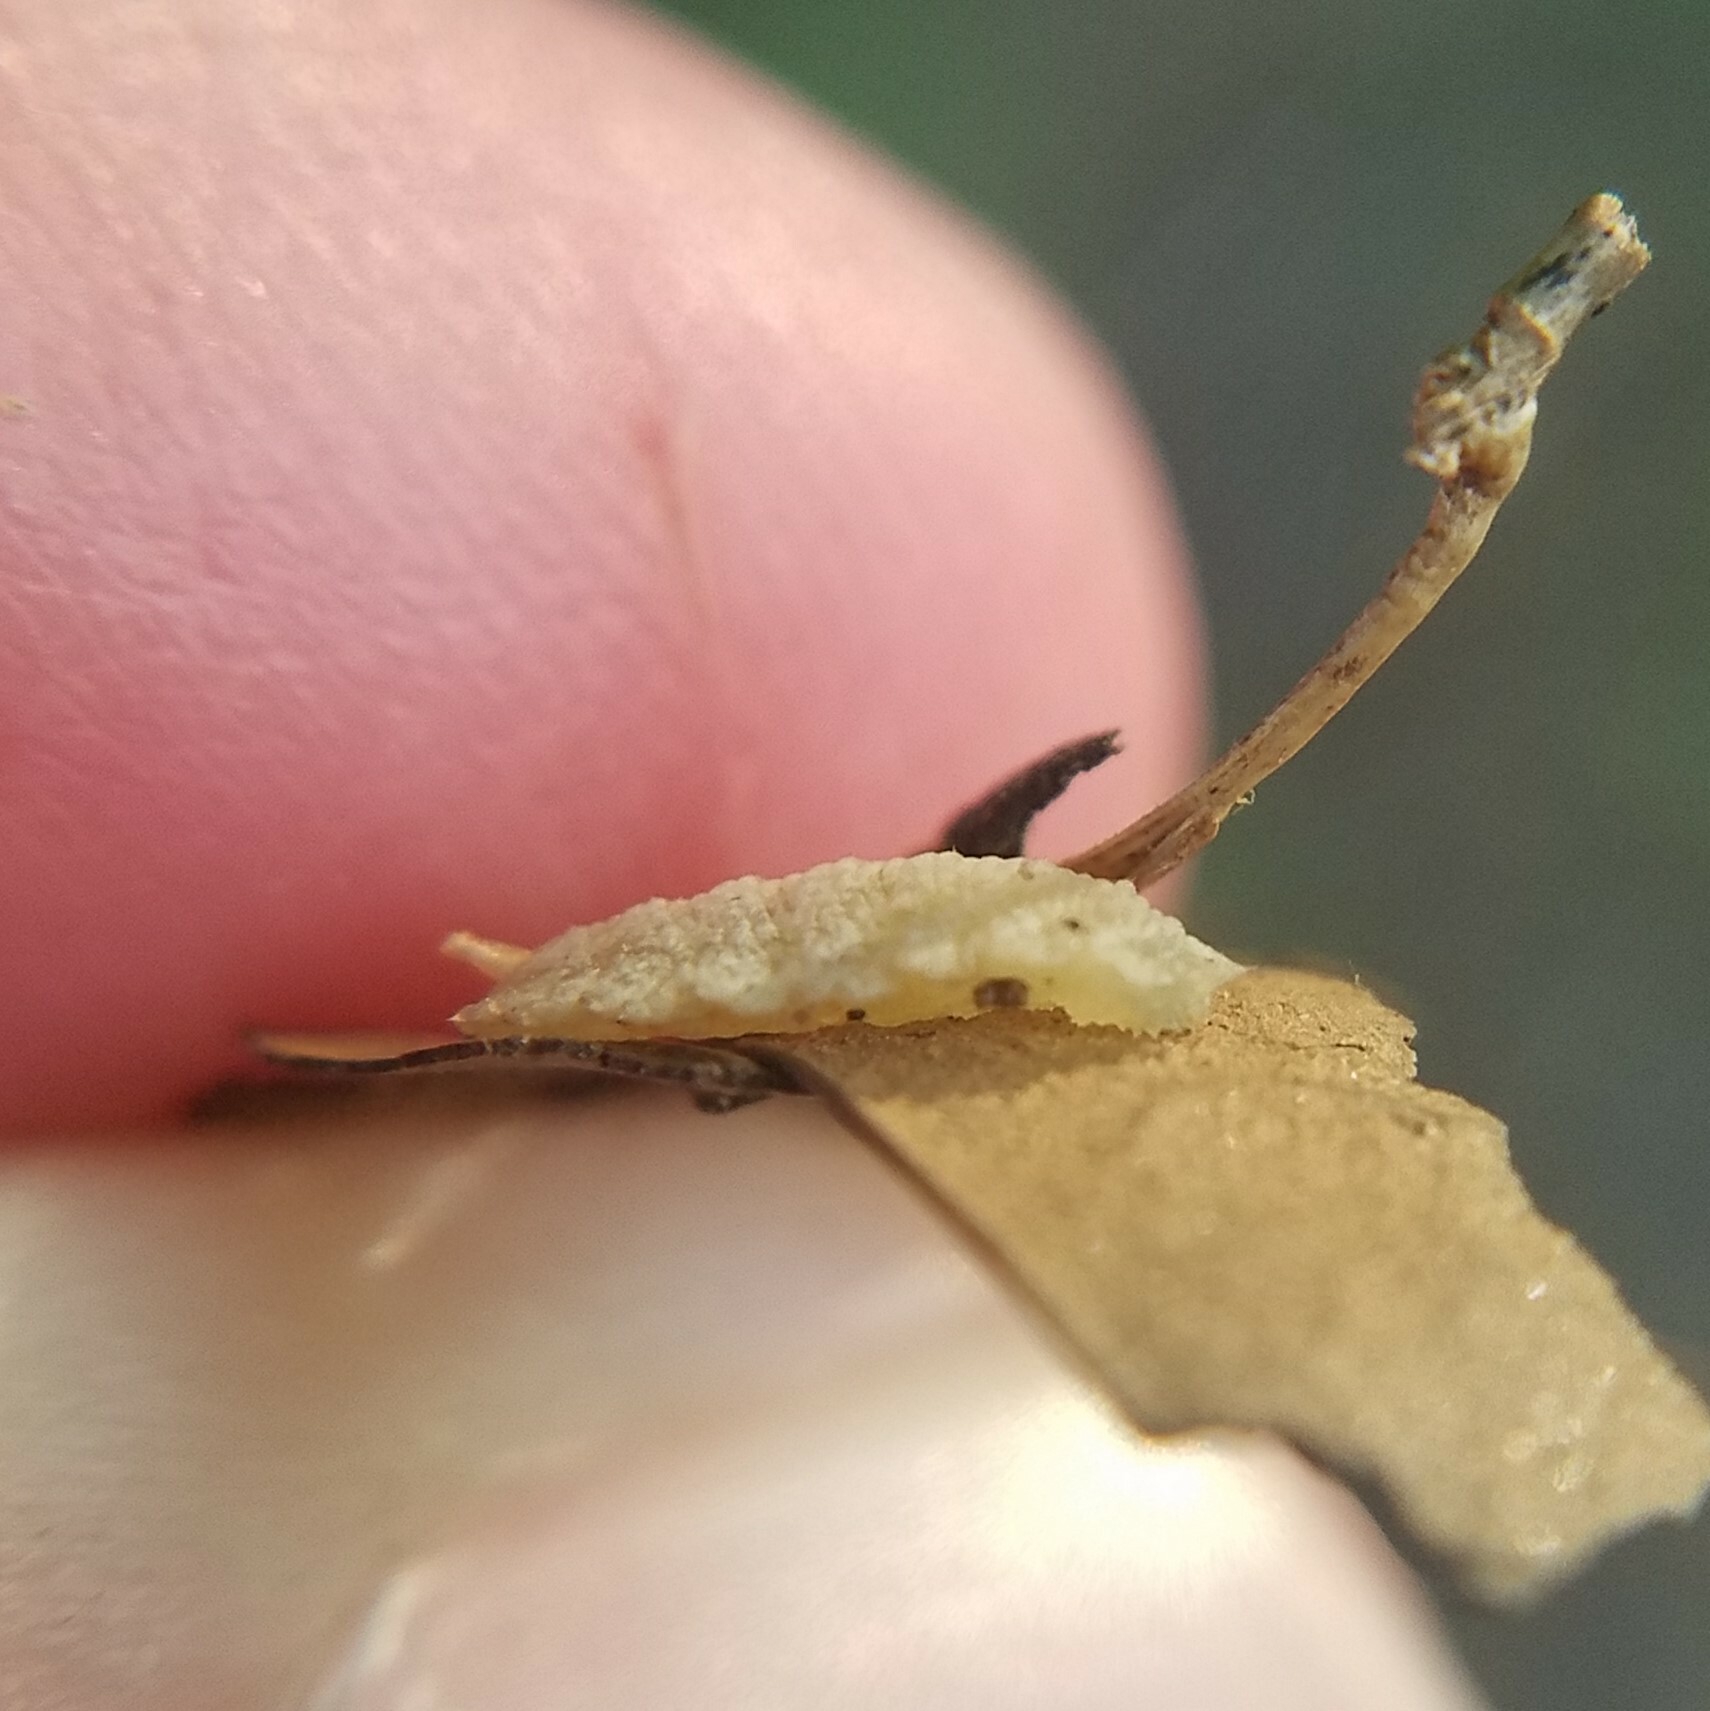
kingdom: Animalia
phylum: Arthropoda
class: Insecta
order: Diptera
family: Syrphidae
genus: Epistrophella
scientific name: Epistrophella emarginata
